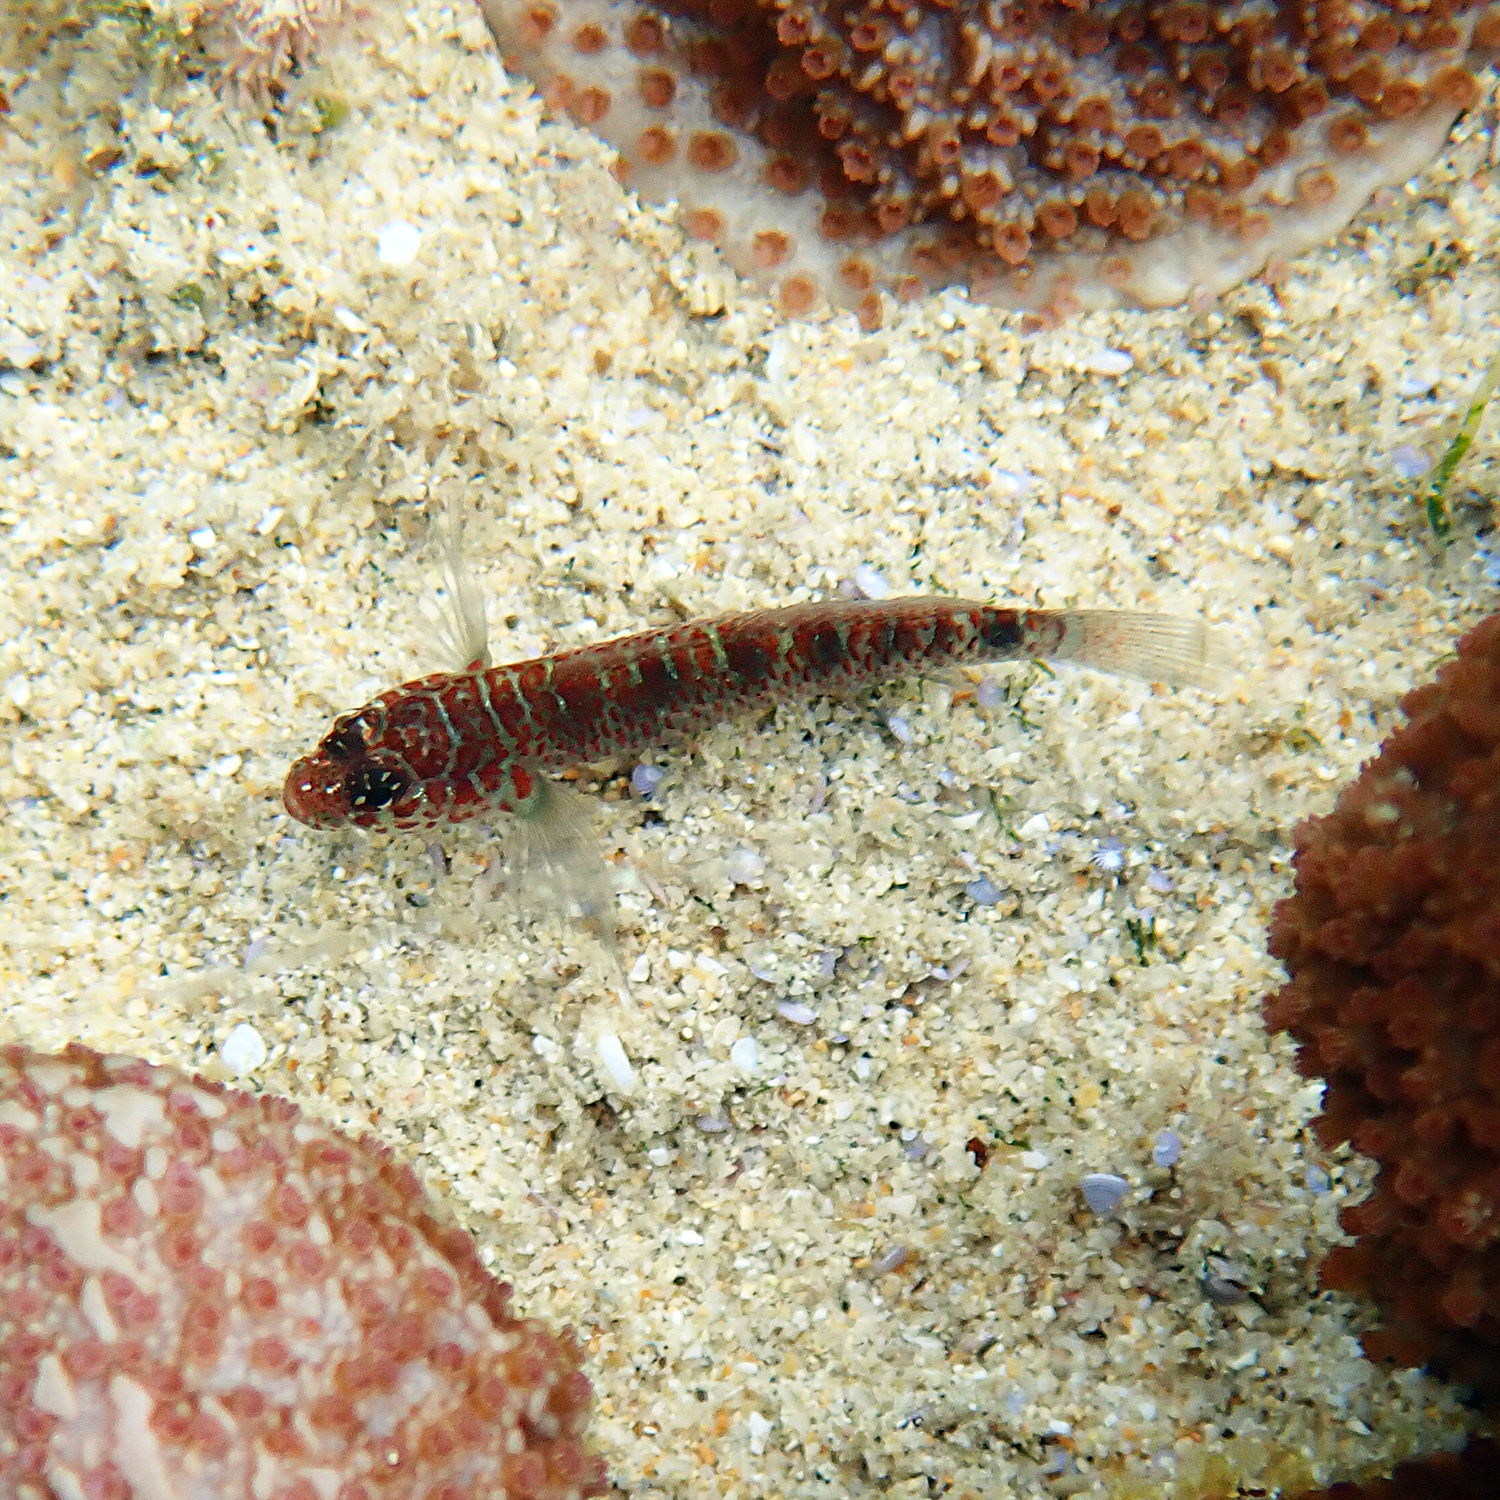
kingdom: Animalia
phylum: Chordata
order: Perciformes
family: Gobiidae
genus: Eviota
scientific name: Eviota hoesei
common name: Doug's eviota
